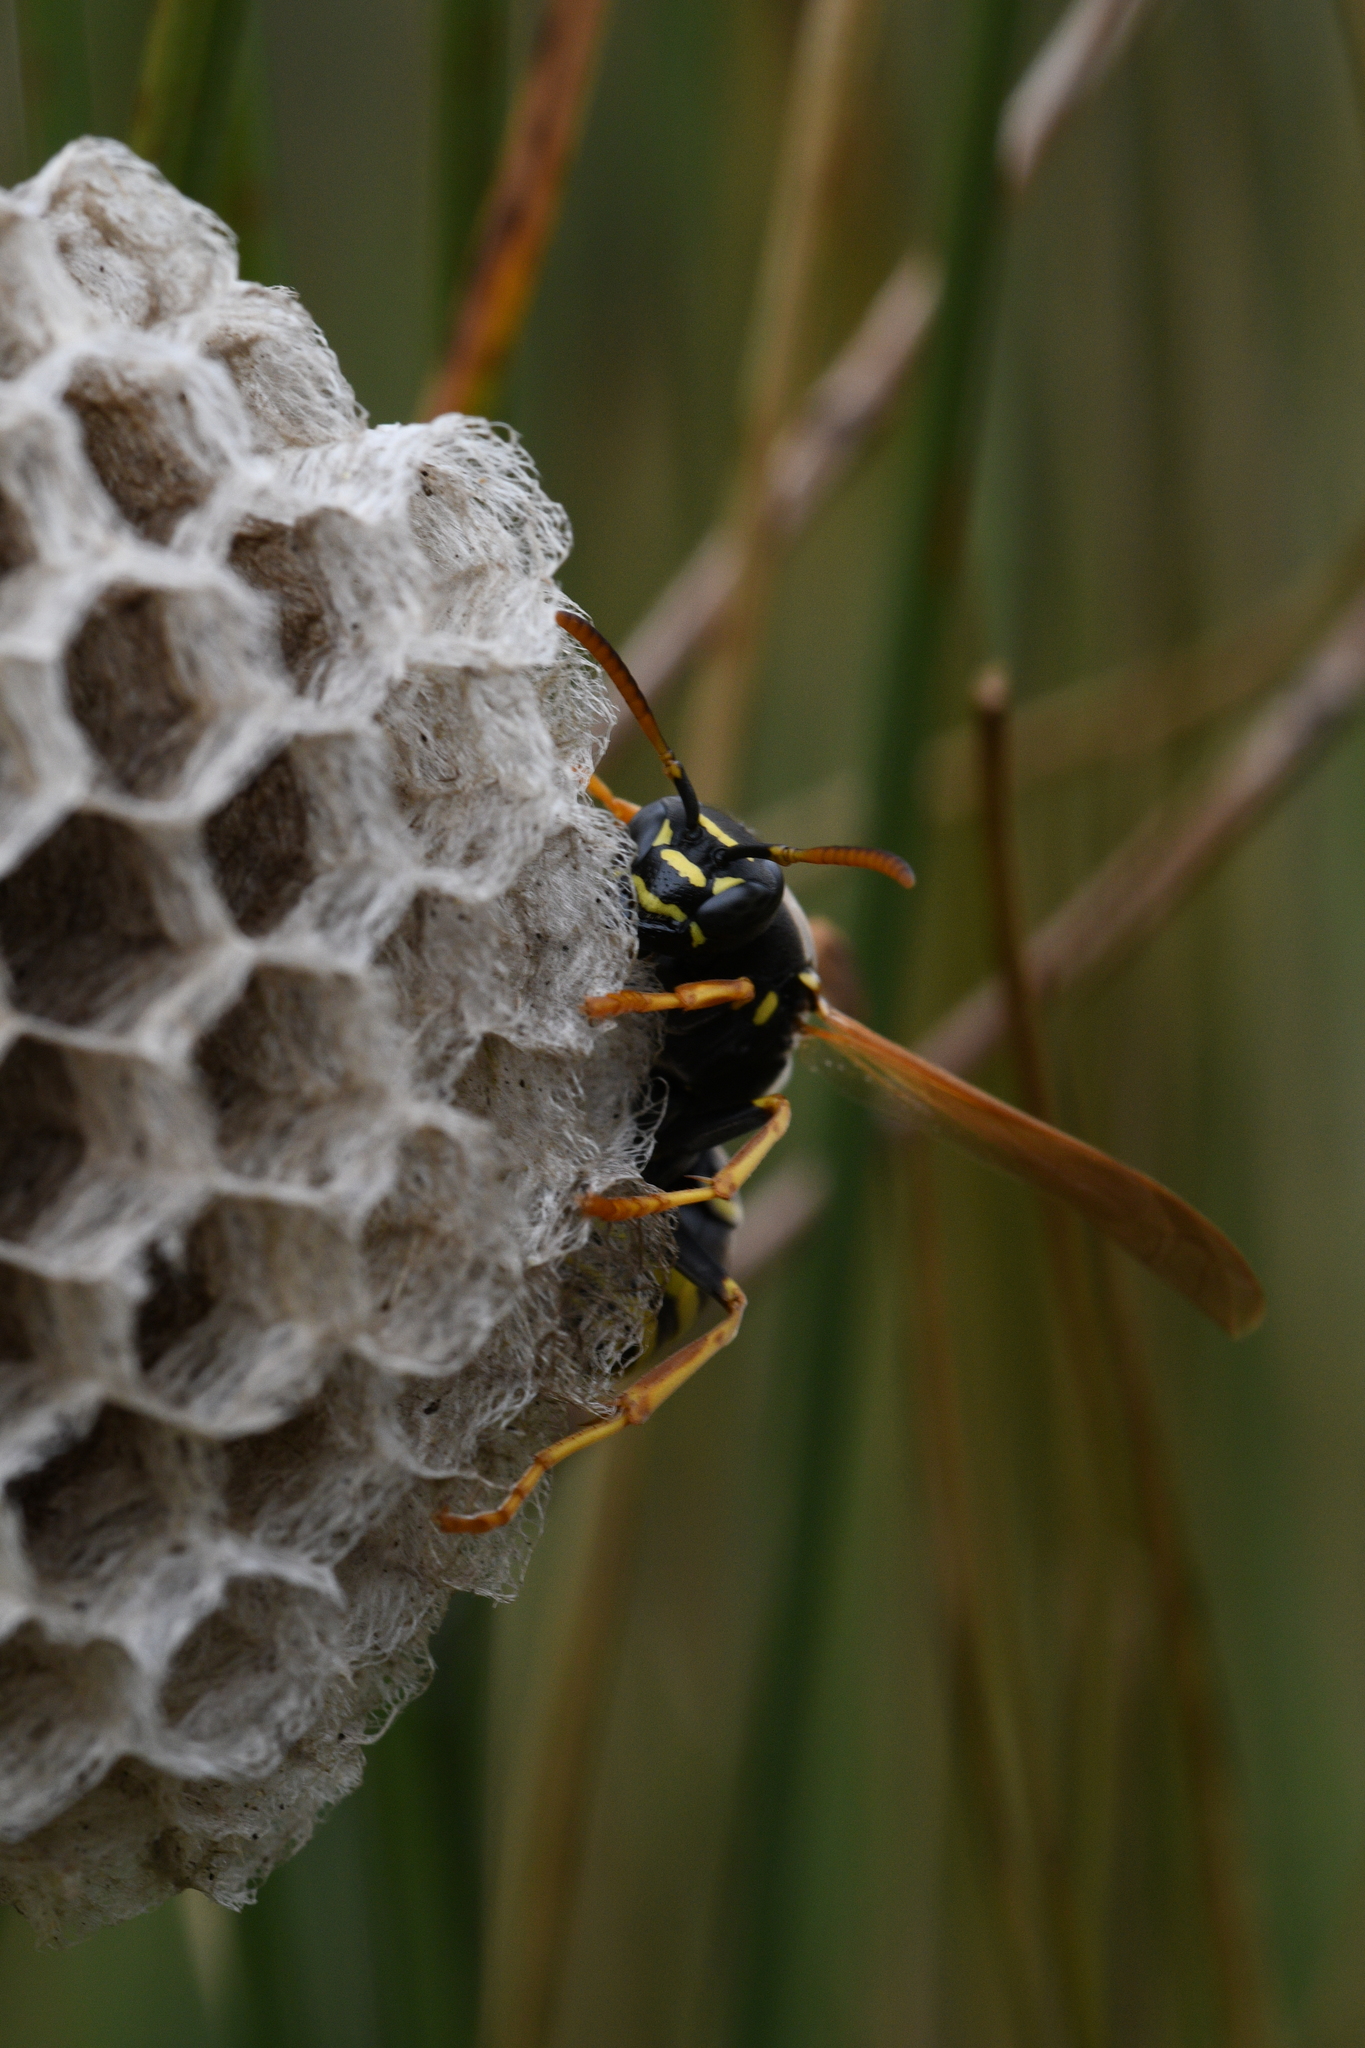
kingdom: Animalia
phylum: Arthropoda
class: Insecta
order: Hymenoptera
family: Eumenidae
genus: Polistes
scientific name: Polistes nimpha
